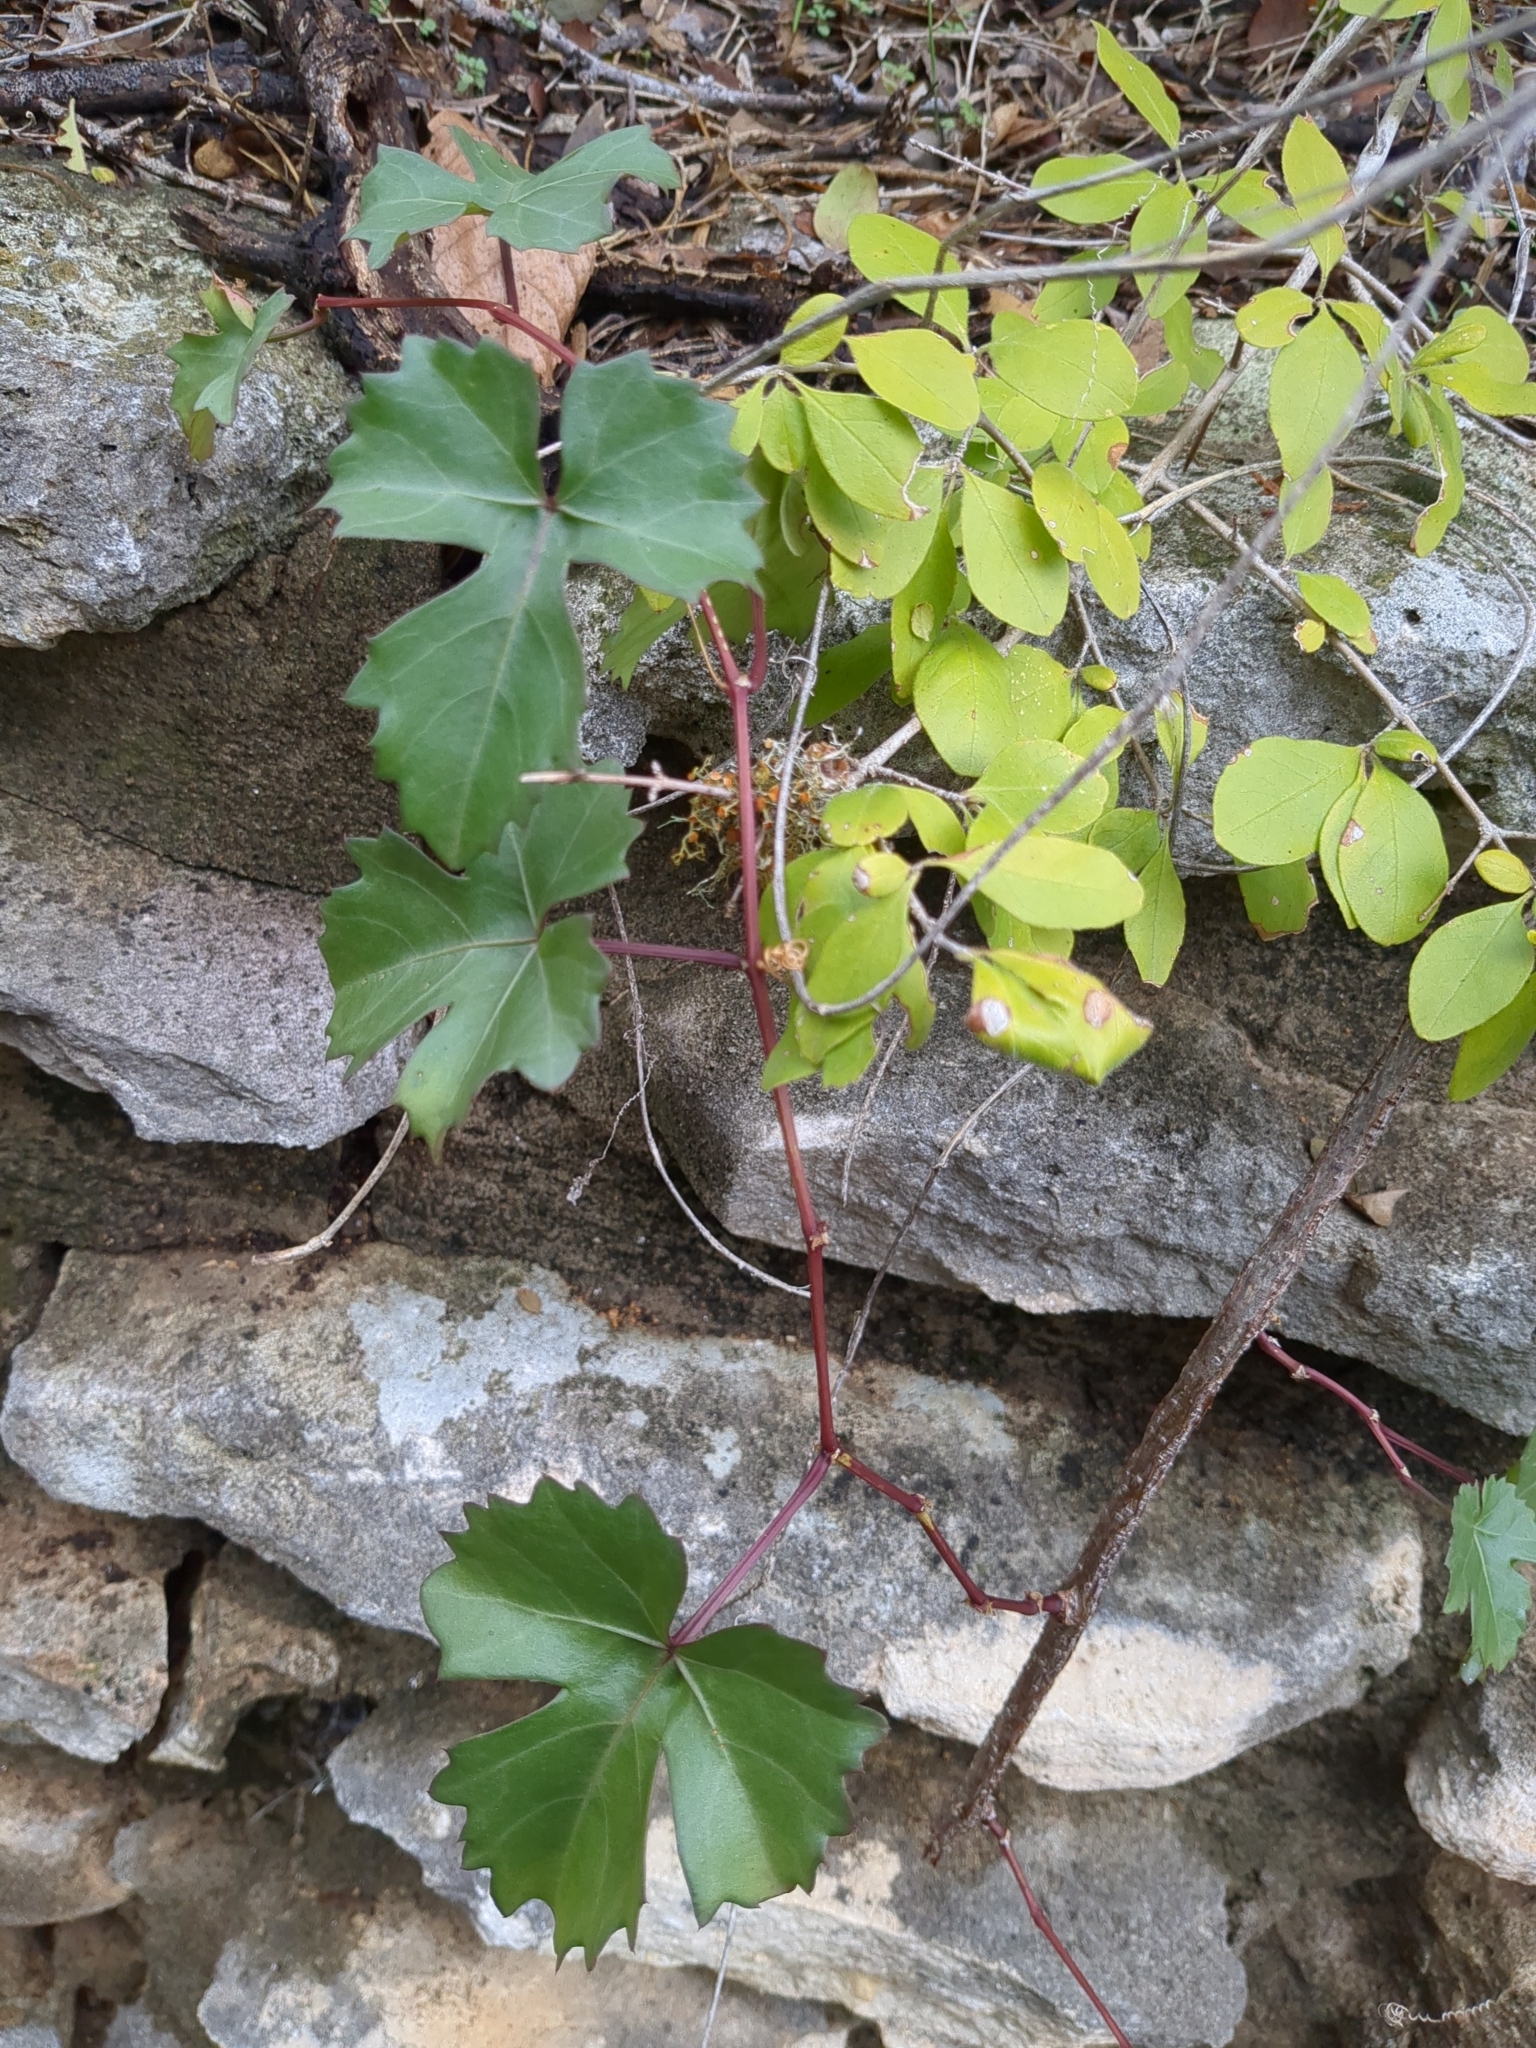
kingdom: Plantae
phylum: Tracheophyta
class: Magnoliopsida
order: Vitales
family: Vitaceae
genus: Cissus
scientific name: Cissus trifoliata
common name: Vine-sorrel
